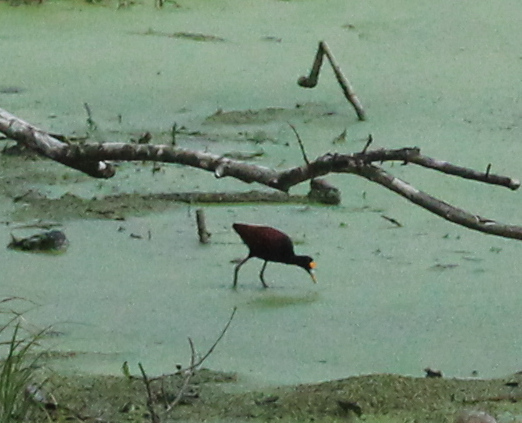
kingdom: Animalia
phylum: Chordata
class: Aves
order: Charadriiformes
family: Jacanidae
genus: Jacana
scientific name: Jacana spinosa
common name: Northern jacana
